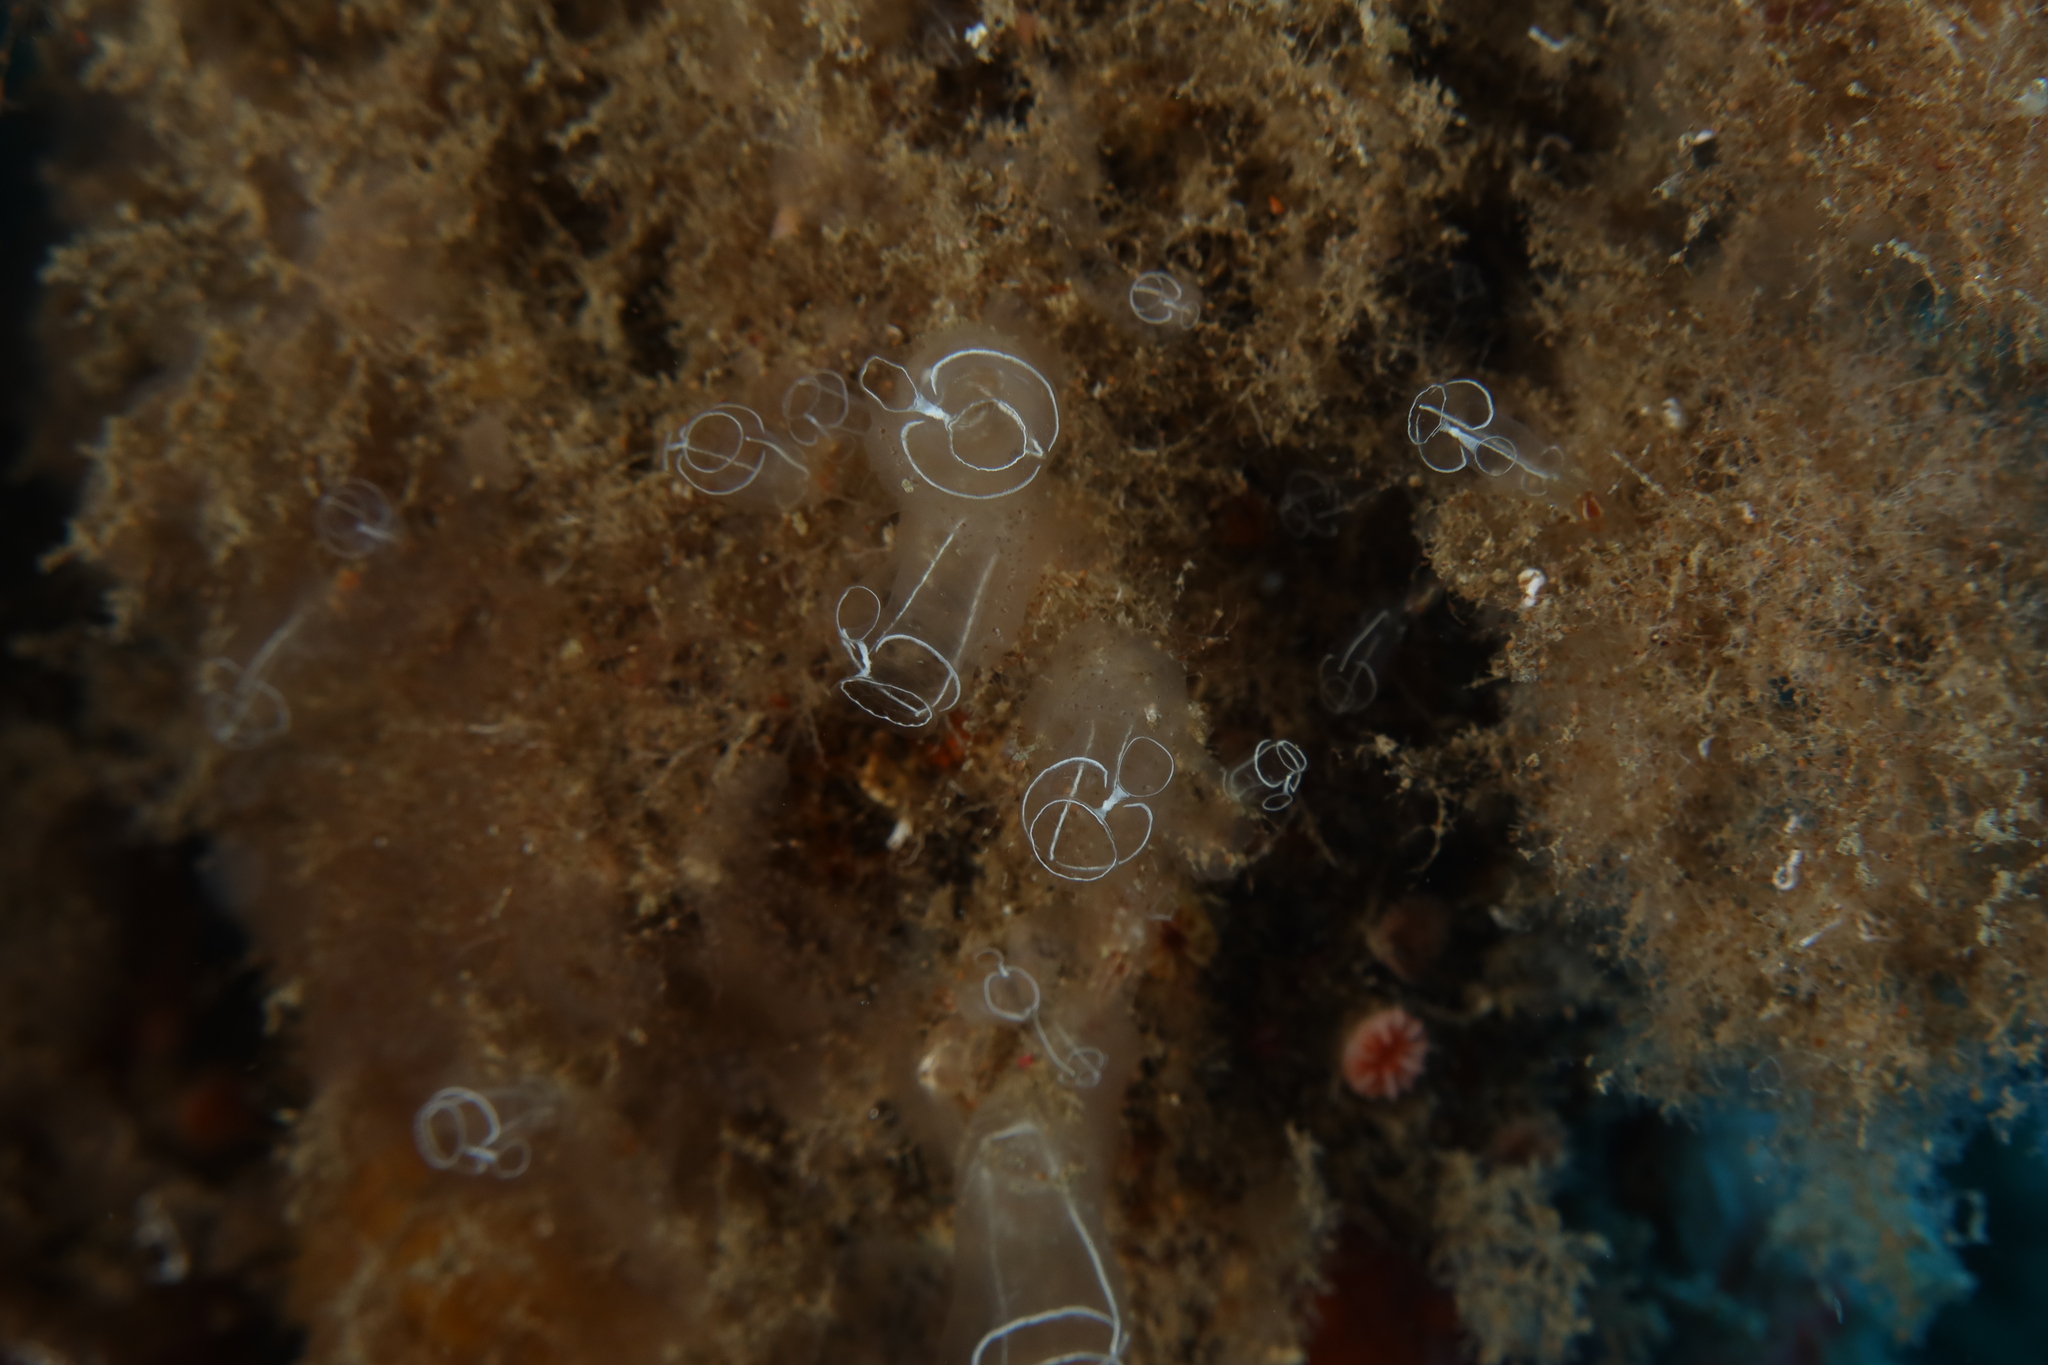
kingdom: Animalia
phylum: Chordata
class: Ascidiacea
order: Aplousobranchia
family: Clavelinidae
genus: Clavelina
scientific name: Clavelina lepadiformis
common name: Light bulb tunicate
